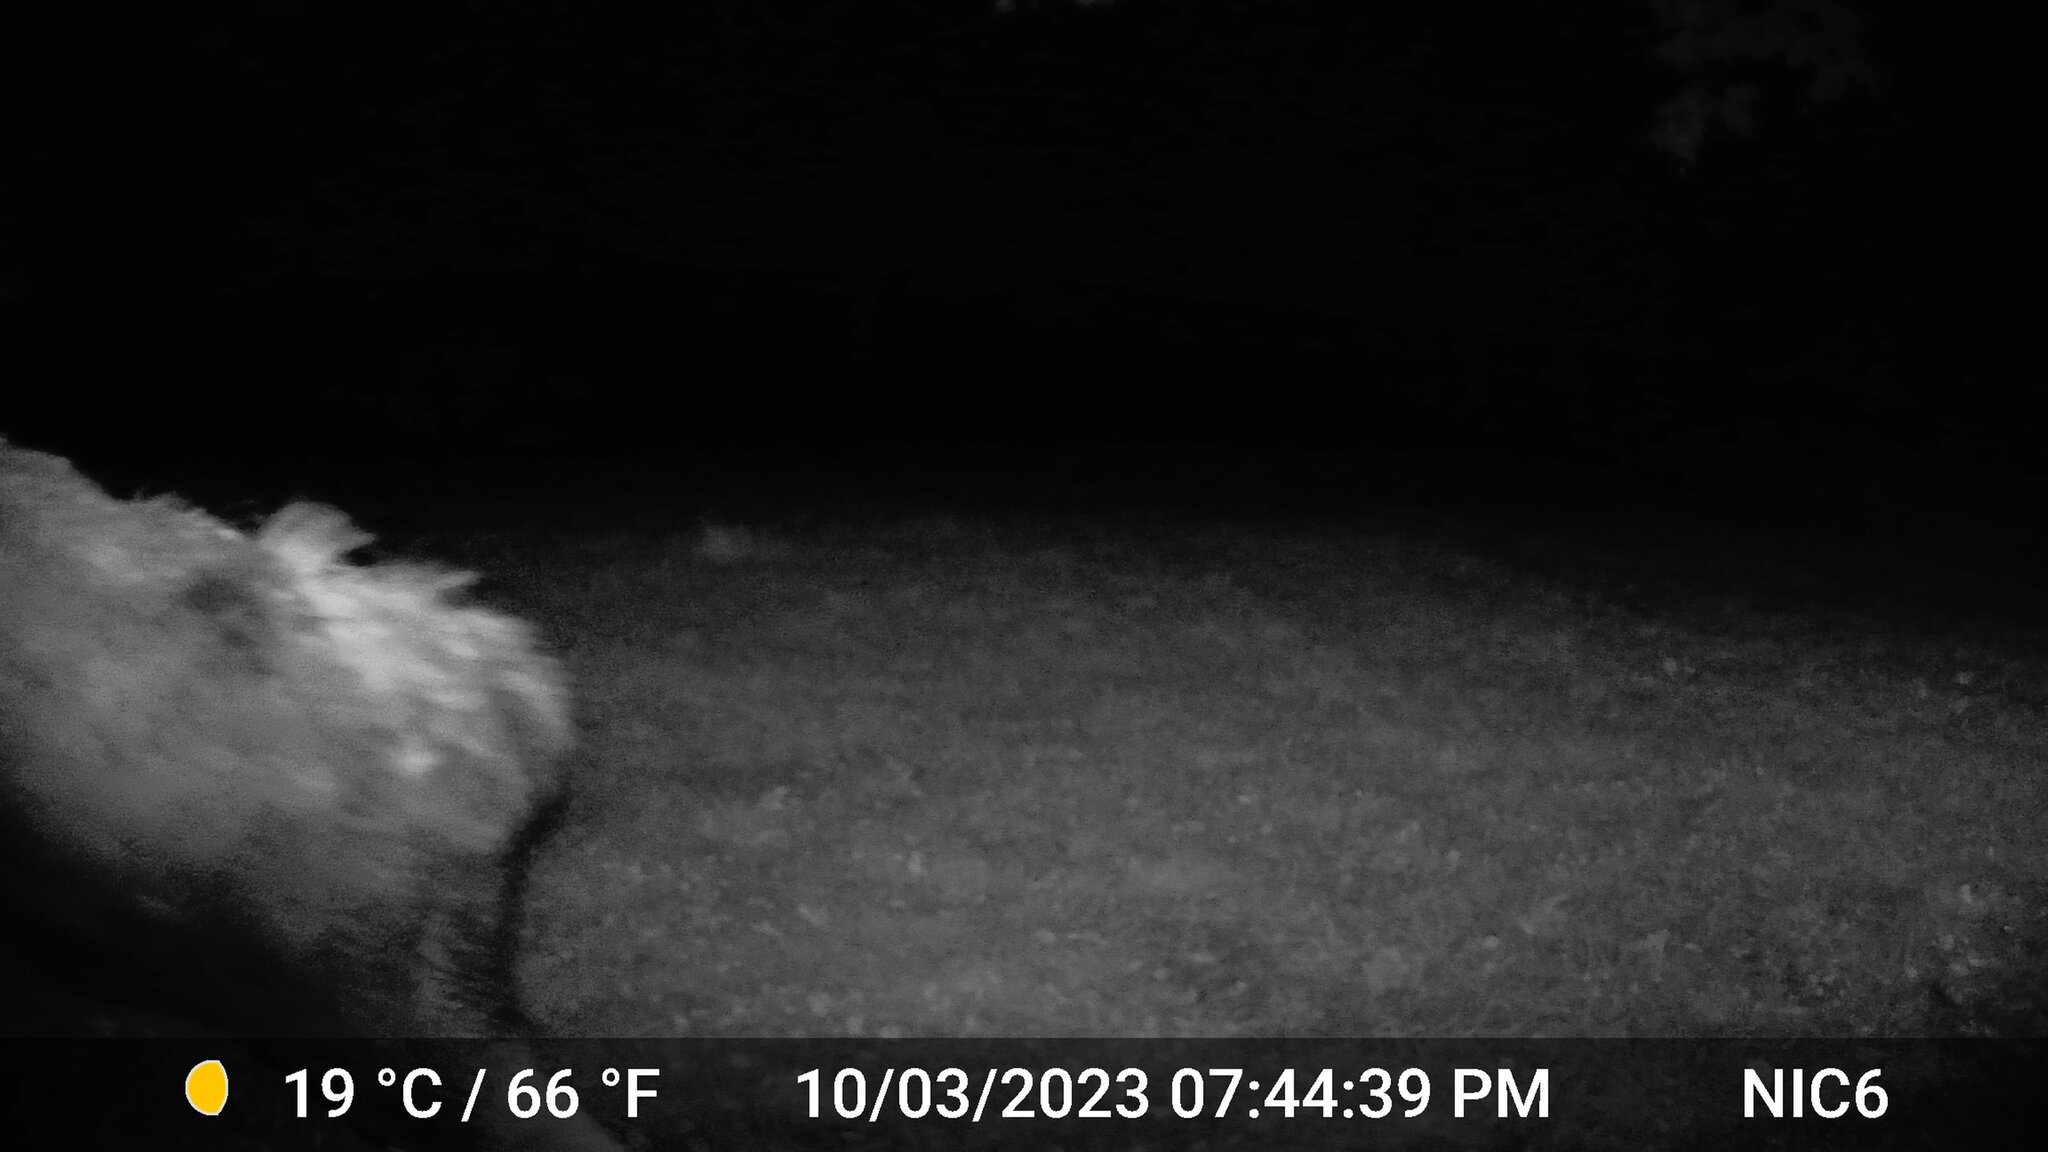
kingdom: Animalia
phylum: Chordata
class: Mammalia
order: Artiodactyla
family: Cervidae
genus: Alces
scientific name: Alces alces
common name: Moose
